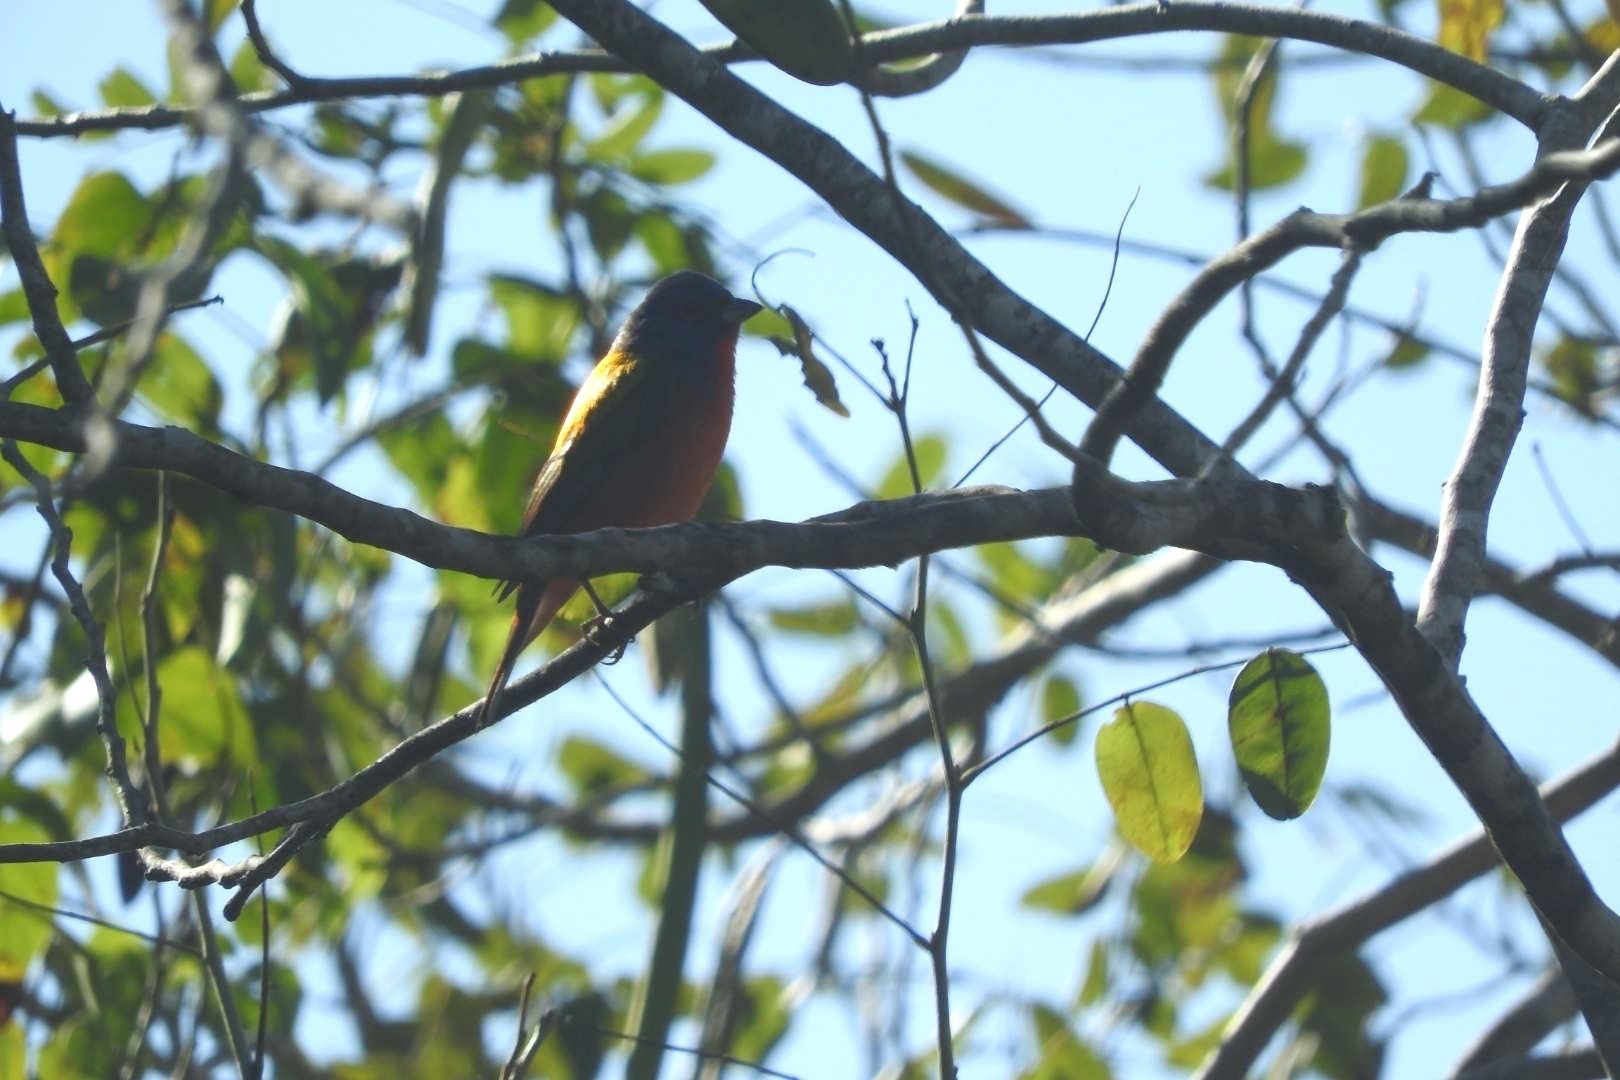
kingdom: Animalia
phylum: Chordata
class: Aves
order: Passeriformes
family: Cardinalidae
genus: Passerina
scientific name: Passerina ciris
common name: Painted bunting
